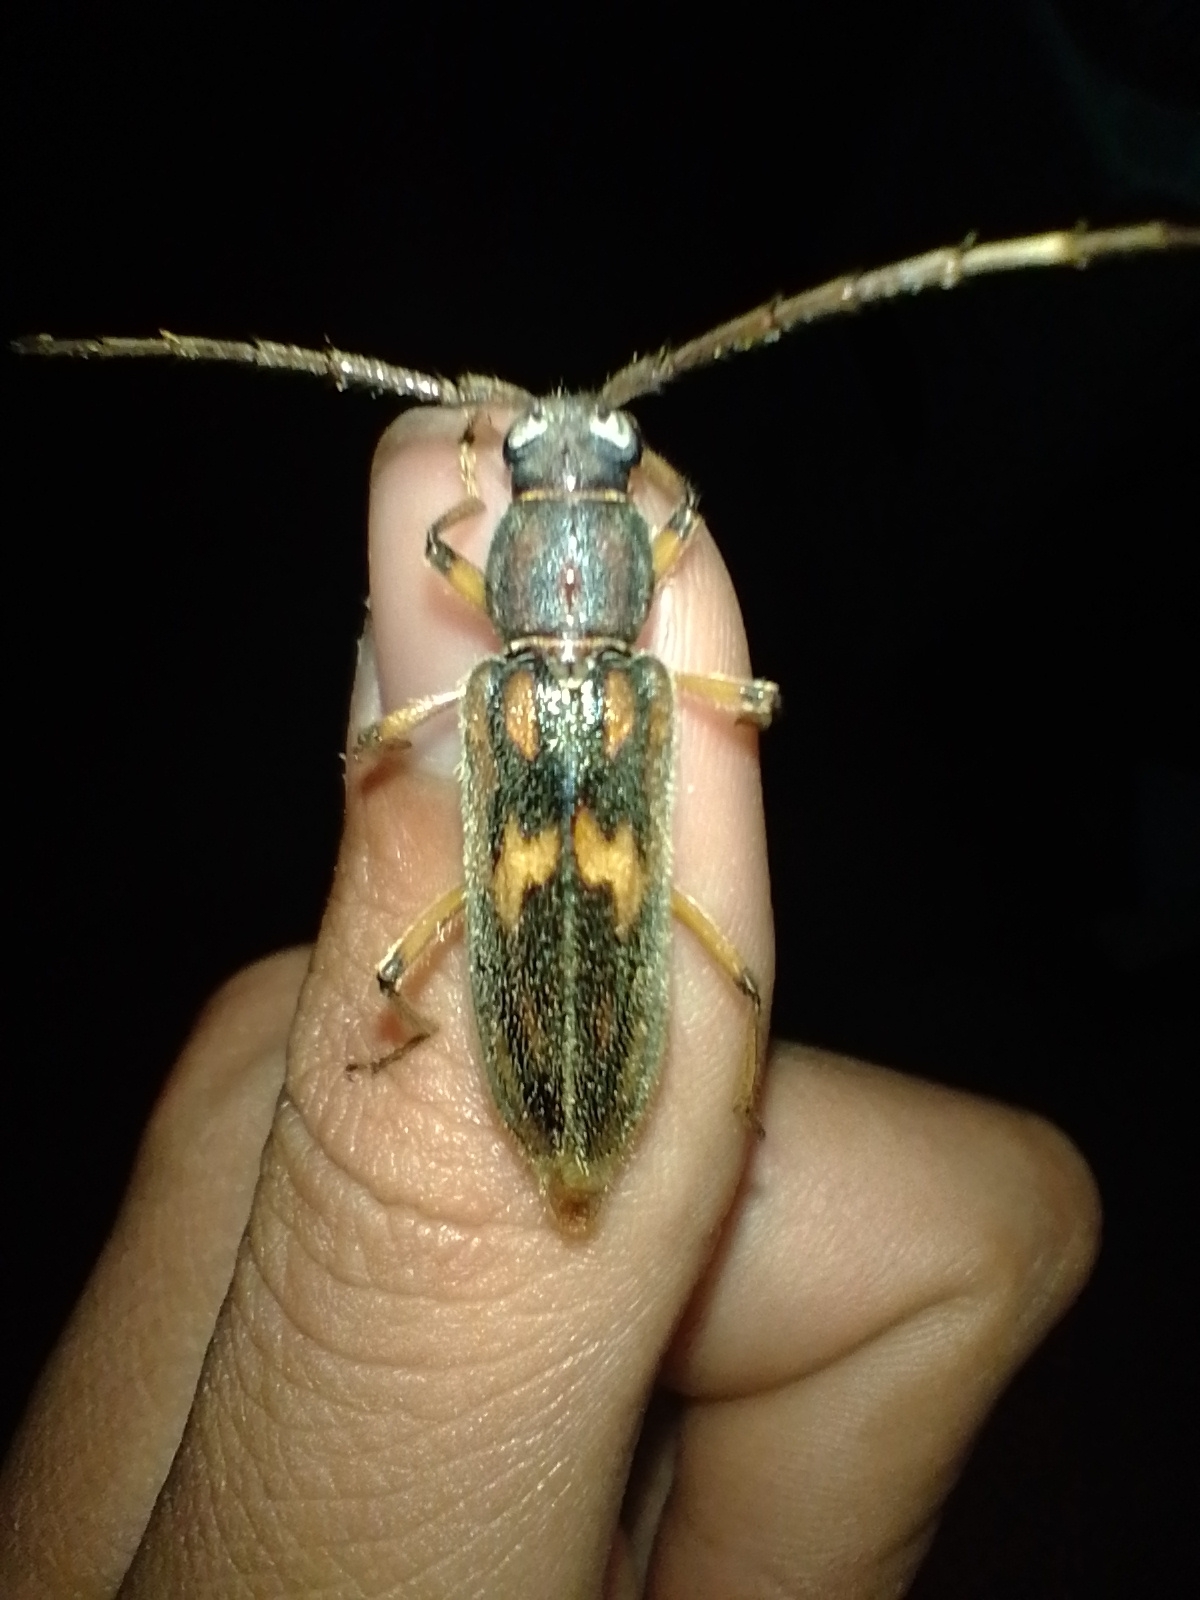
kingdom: Animalia
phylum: Arthropoda
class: Insecta
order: Coleoptera
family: Cerambycidae
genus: Achryson
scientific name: Achryson undulatum
